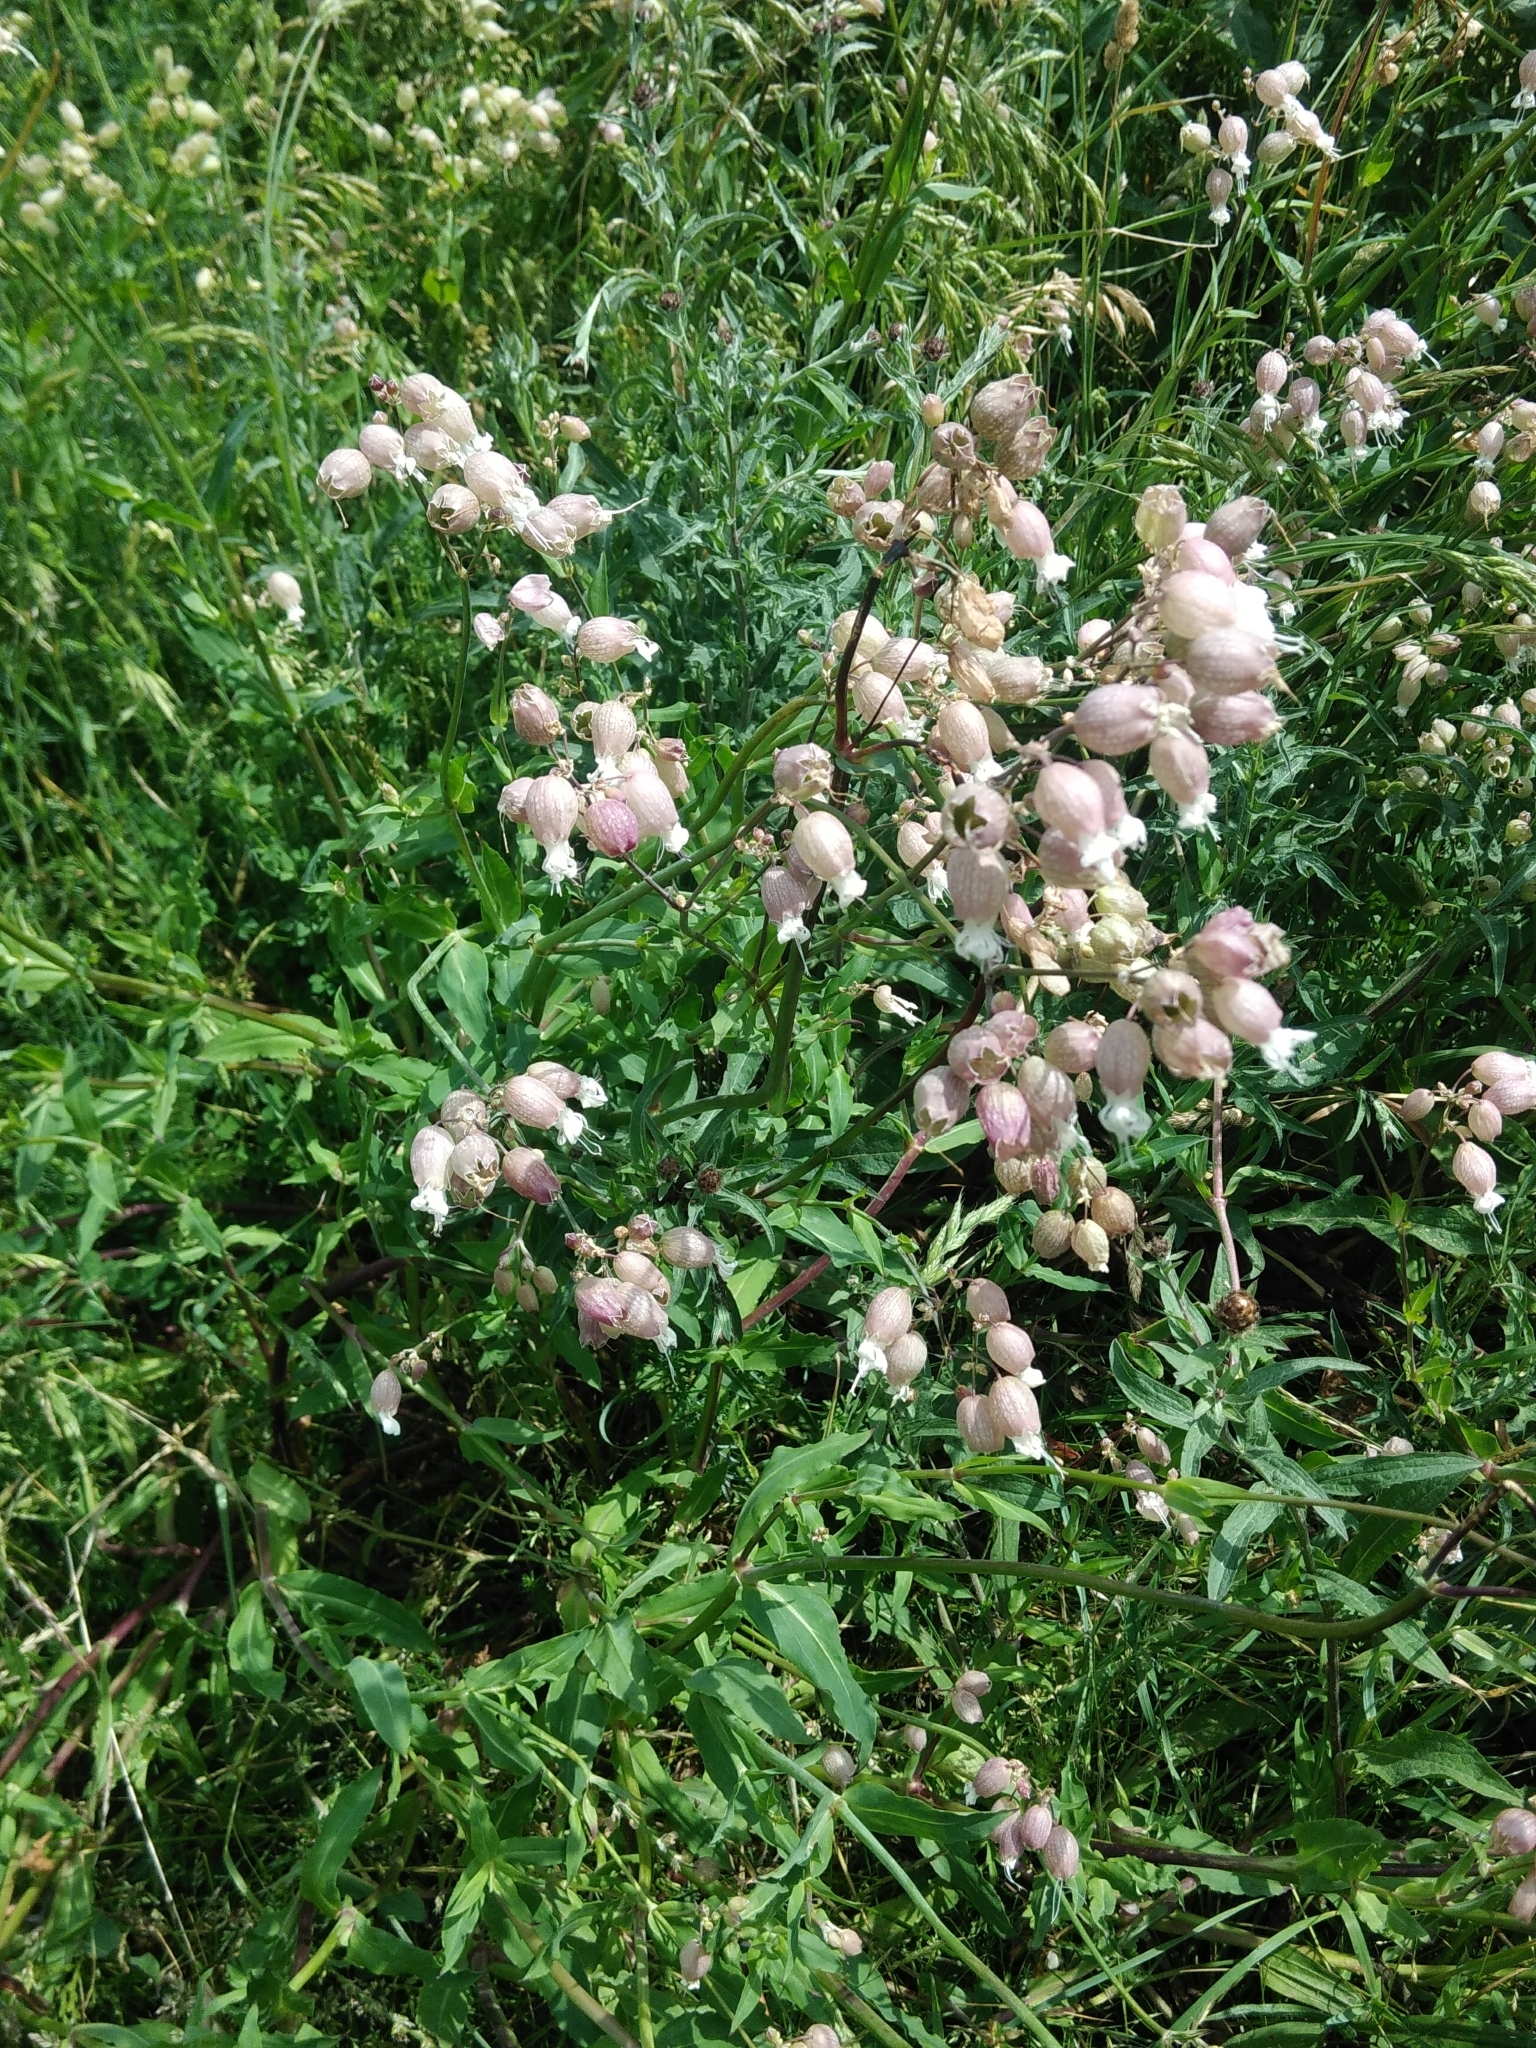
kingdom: Plantae
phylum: Tracheophyta
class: Magnoliopsida
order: Caryophyllales
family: Caryophyllaceae
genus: Silene
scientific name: Silene vulgaris
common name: Bladder campion
